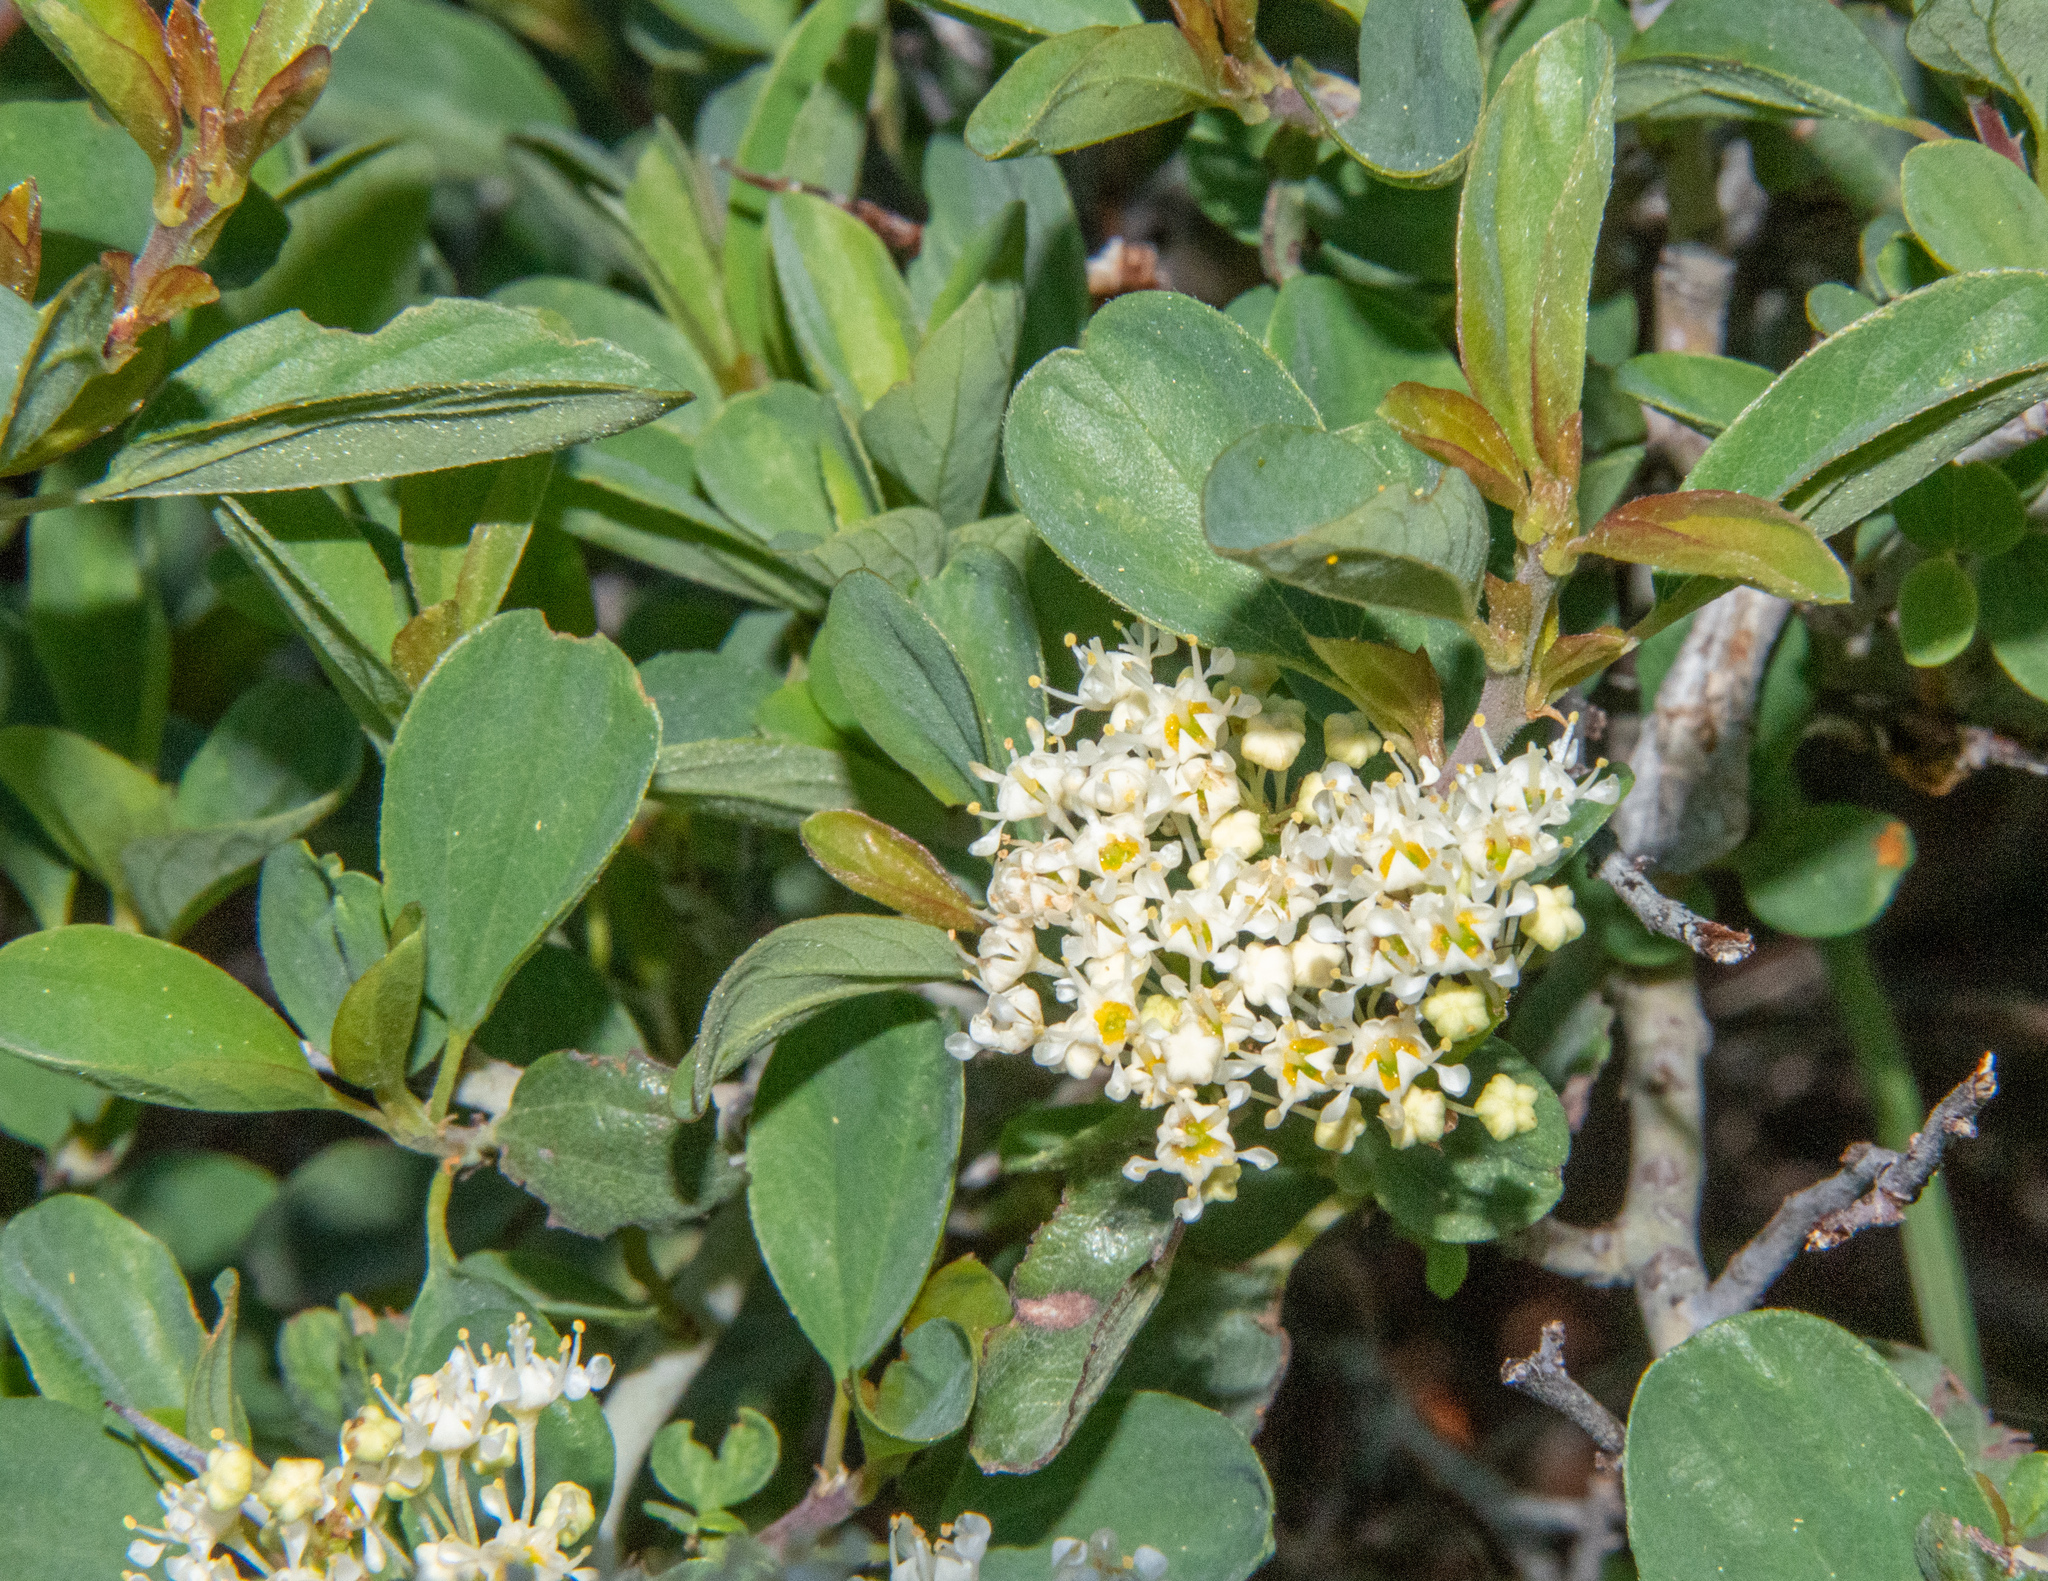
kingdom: Plantae
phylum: Tracheophyta
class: Magnoliopsida
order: Rosales
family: Rhamnaceae
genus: Ceanothus
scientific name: Ceanothus cordulatus
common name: Mountain whitethorn
